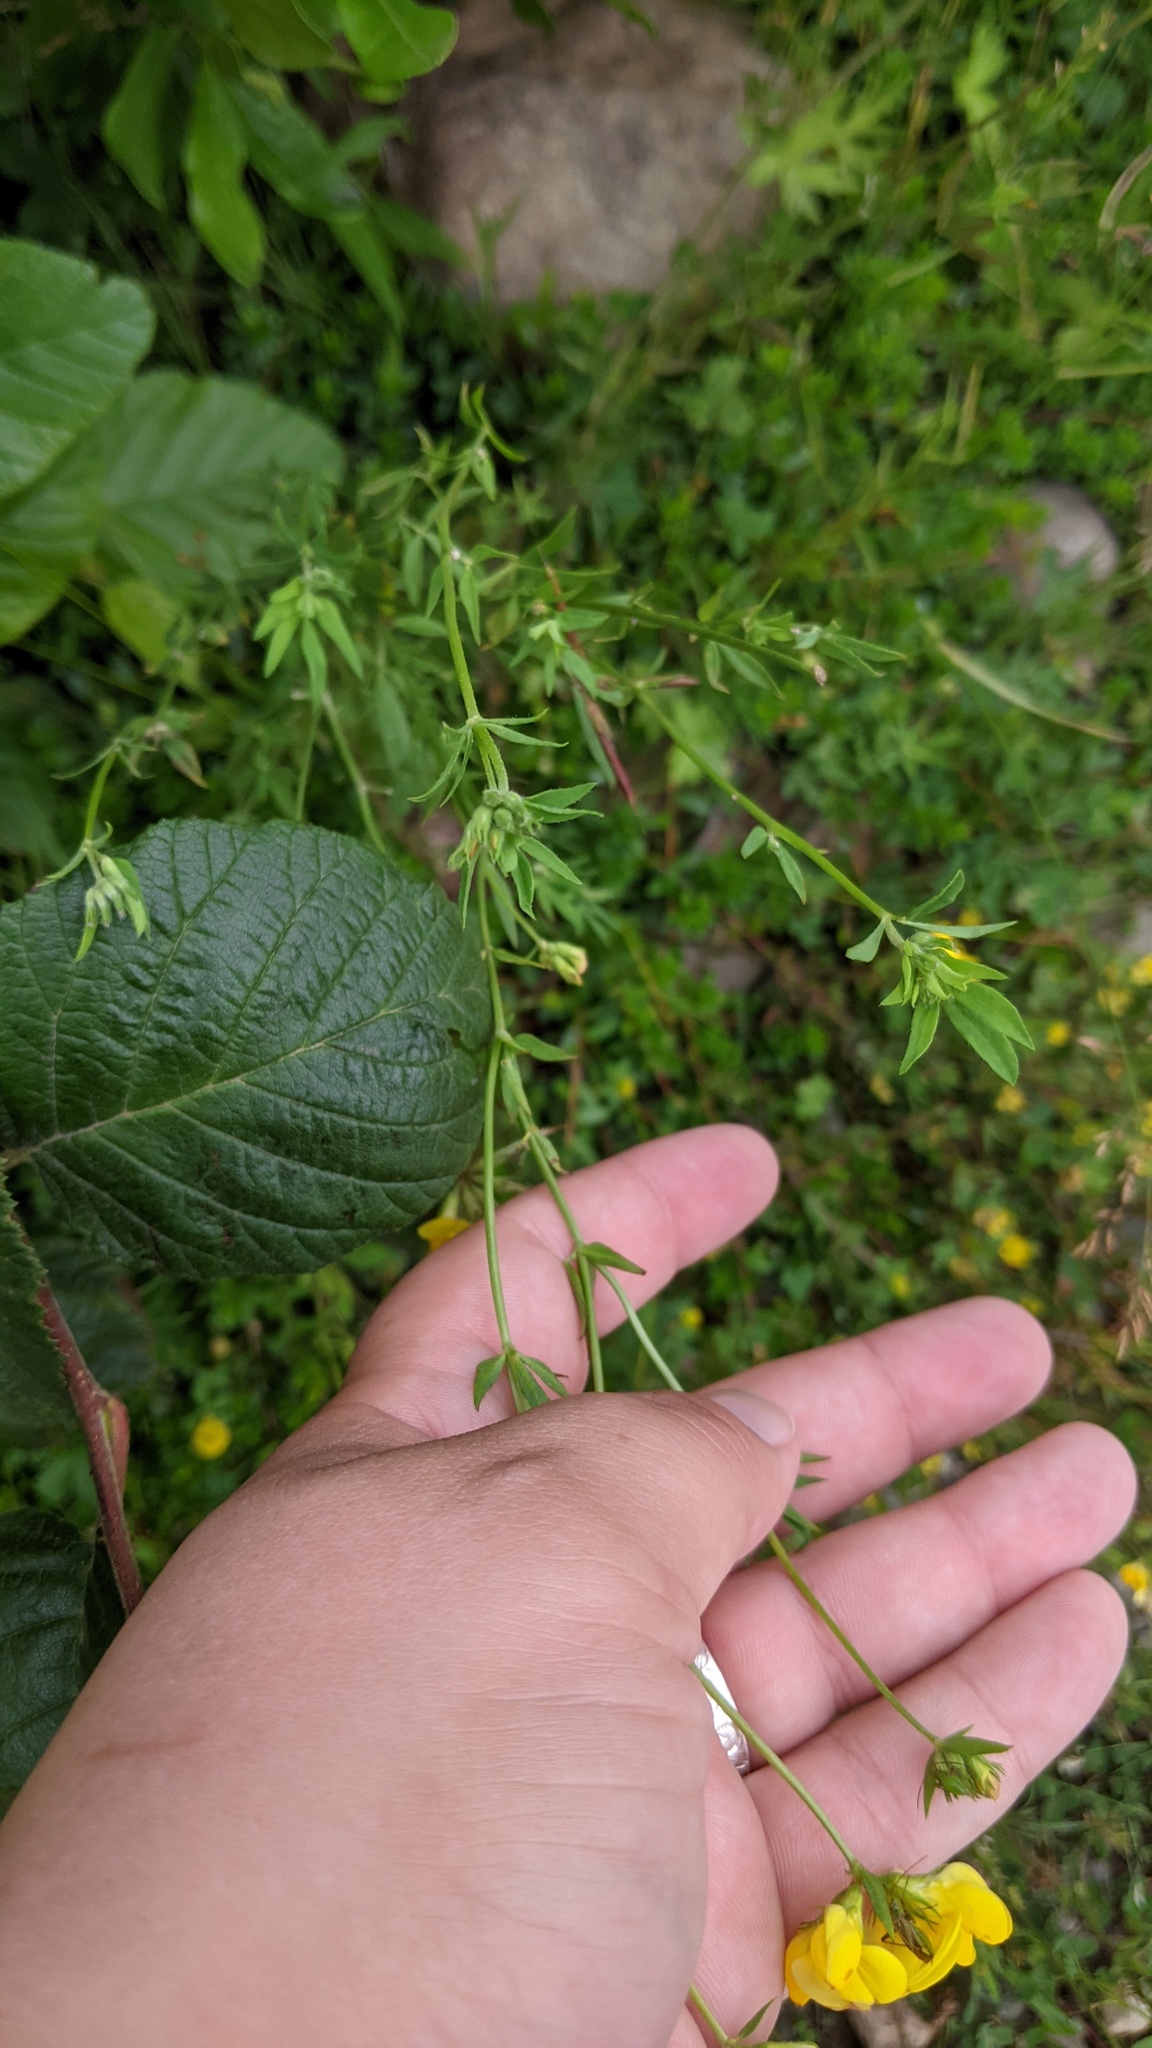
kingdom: Plantae
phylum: Tracheophyta
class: Magnoliopsida
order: Fabales
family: Fabaceae
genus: Lotus
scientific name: Lotus corniculatus
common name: Common bird's-foot-trefoil
